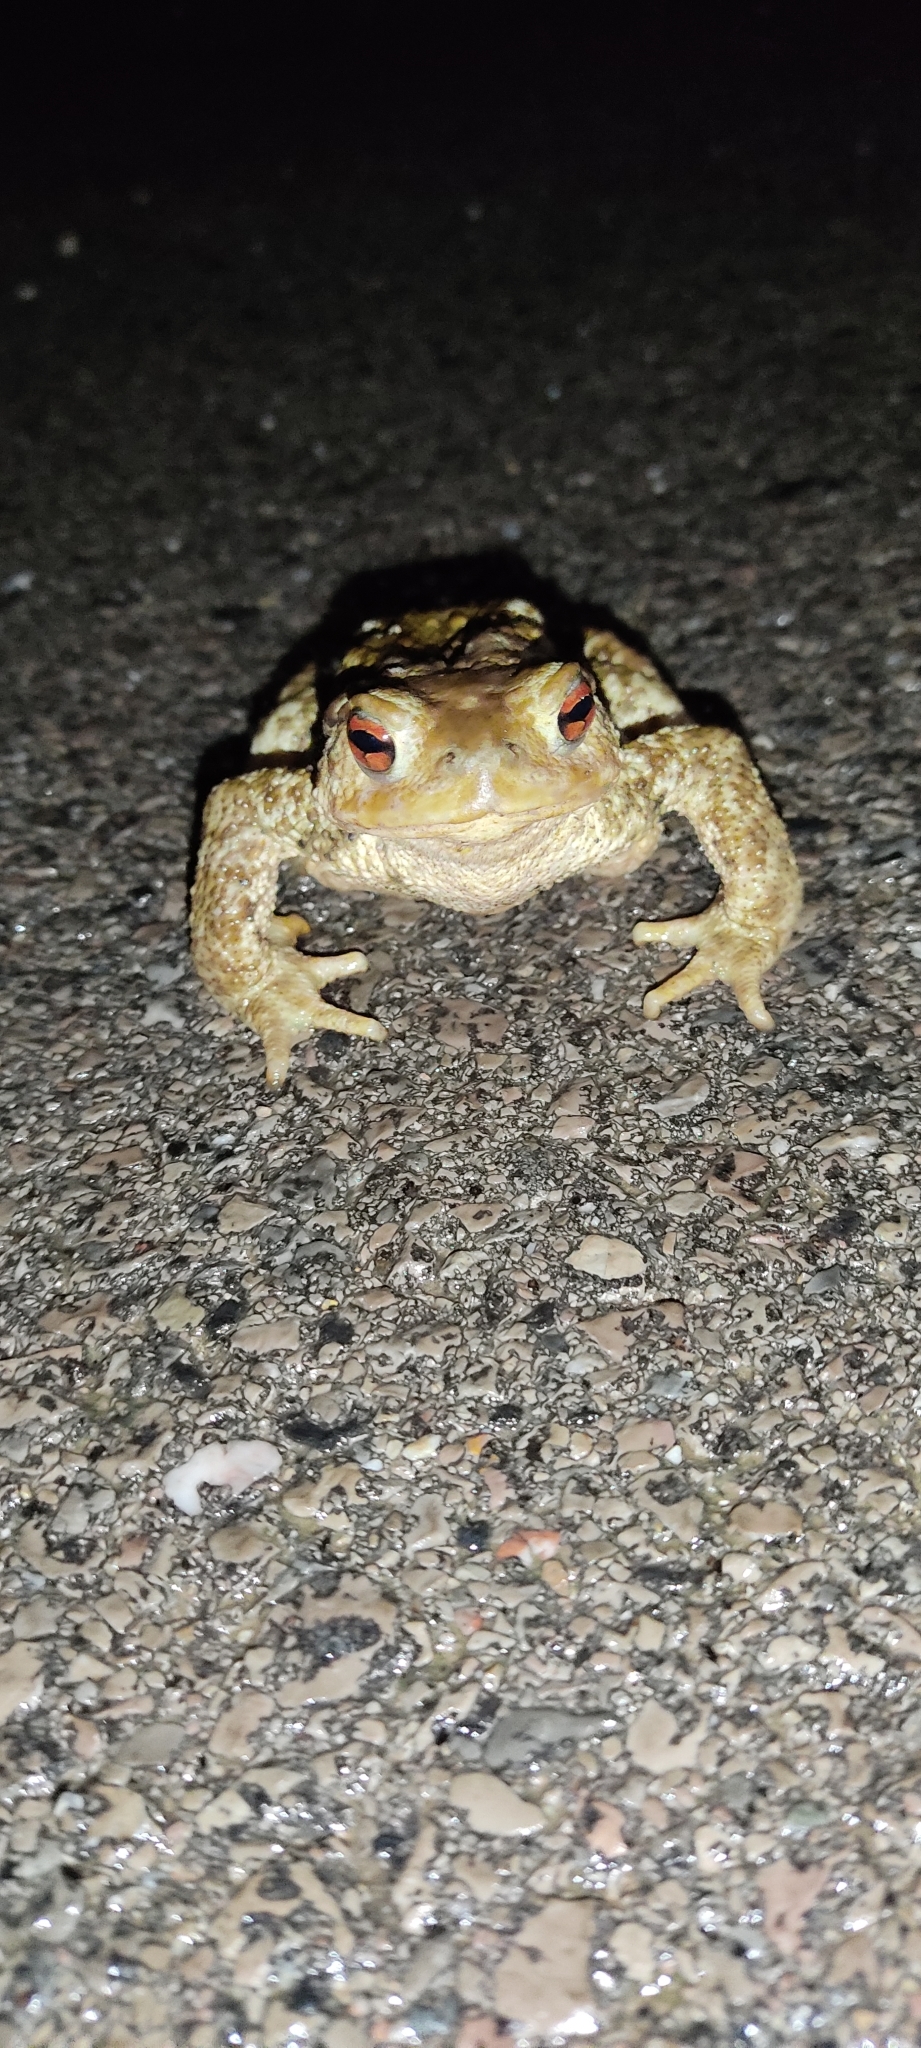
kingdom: Animalia
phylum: Chordata
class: Amphibia
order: Anura
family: Bufonidae
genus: Bufo
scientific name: Bufo spinosus
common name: Western common toad
